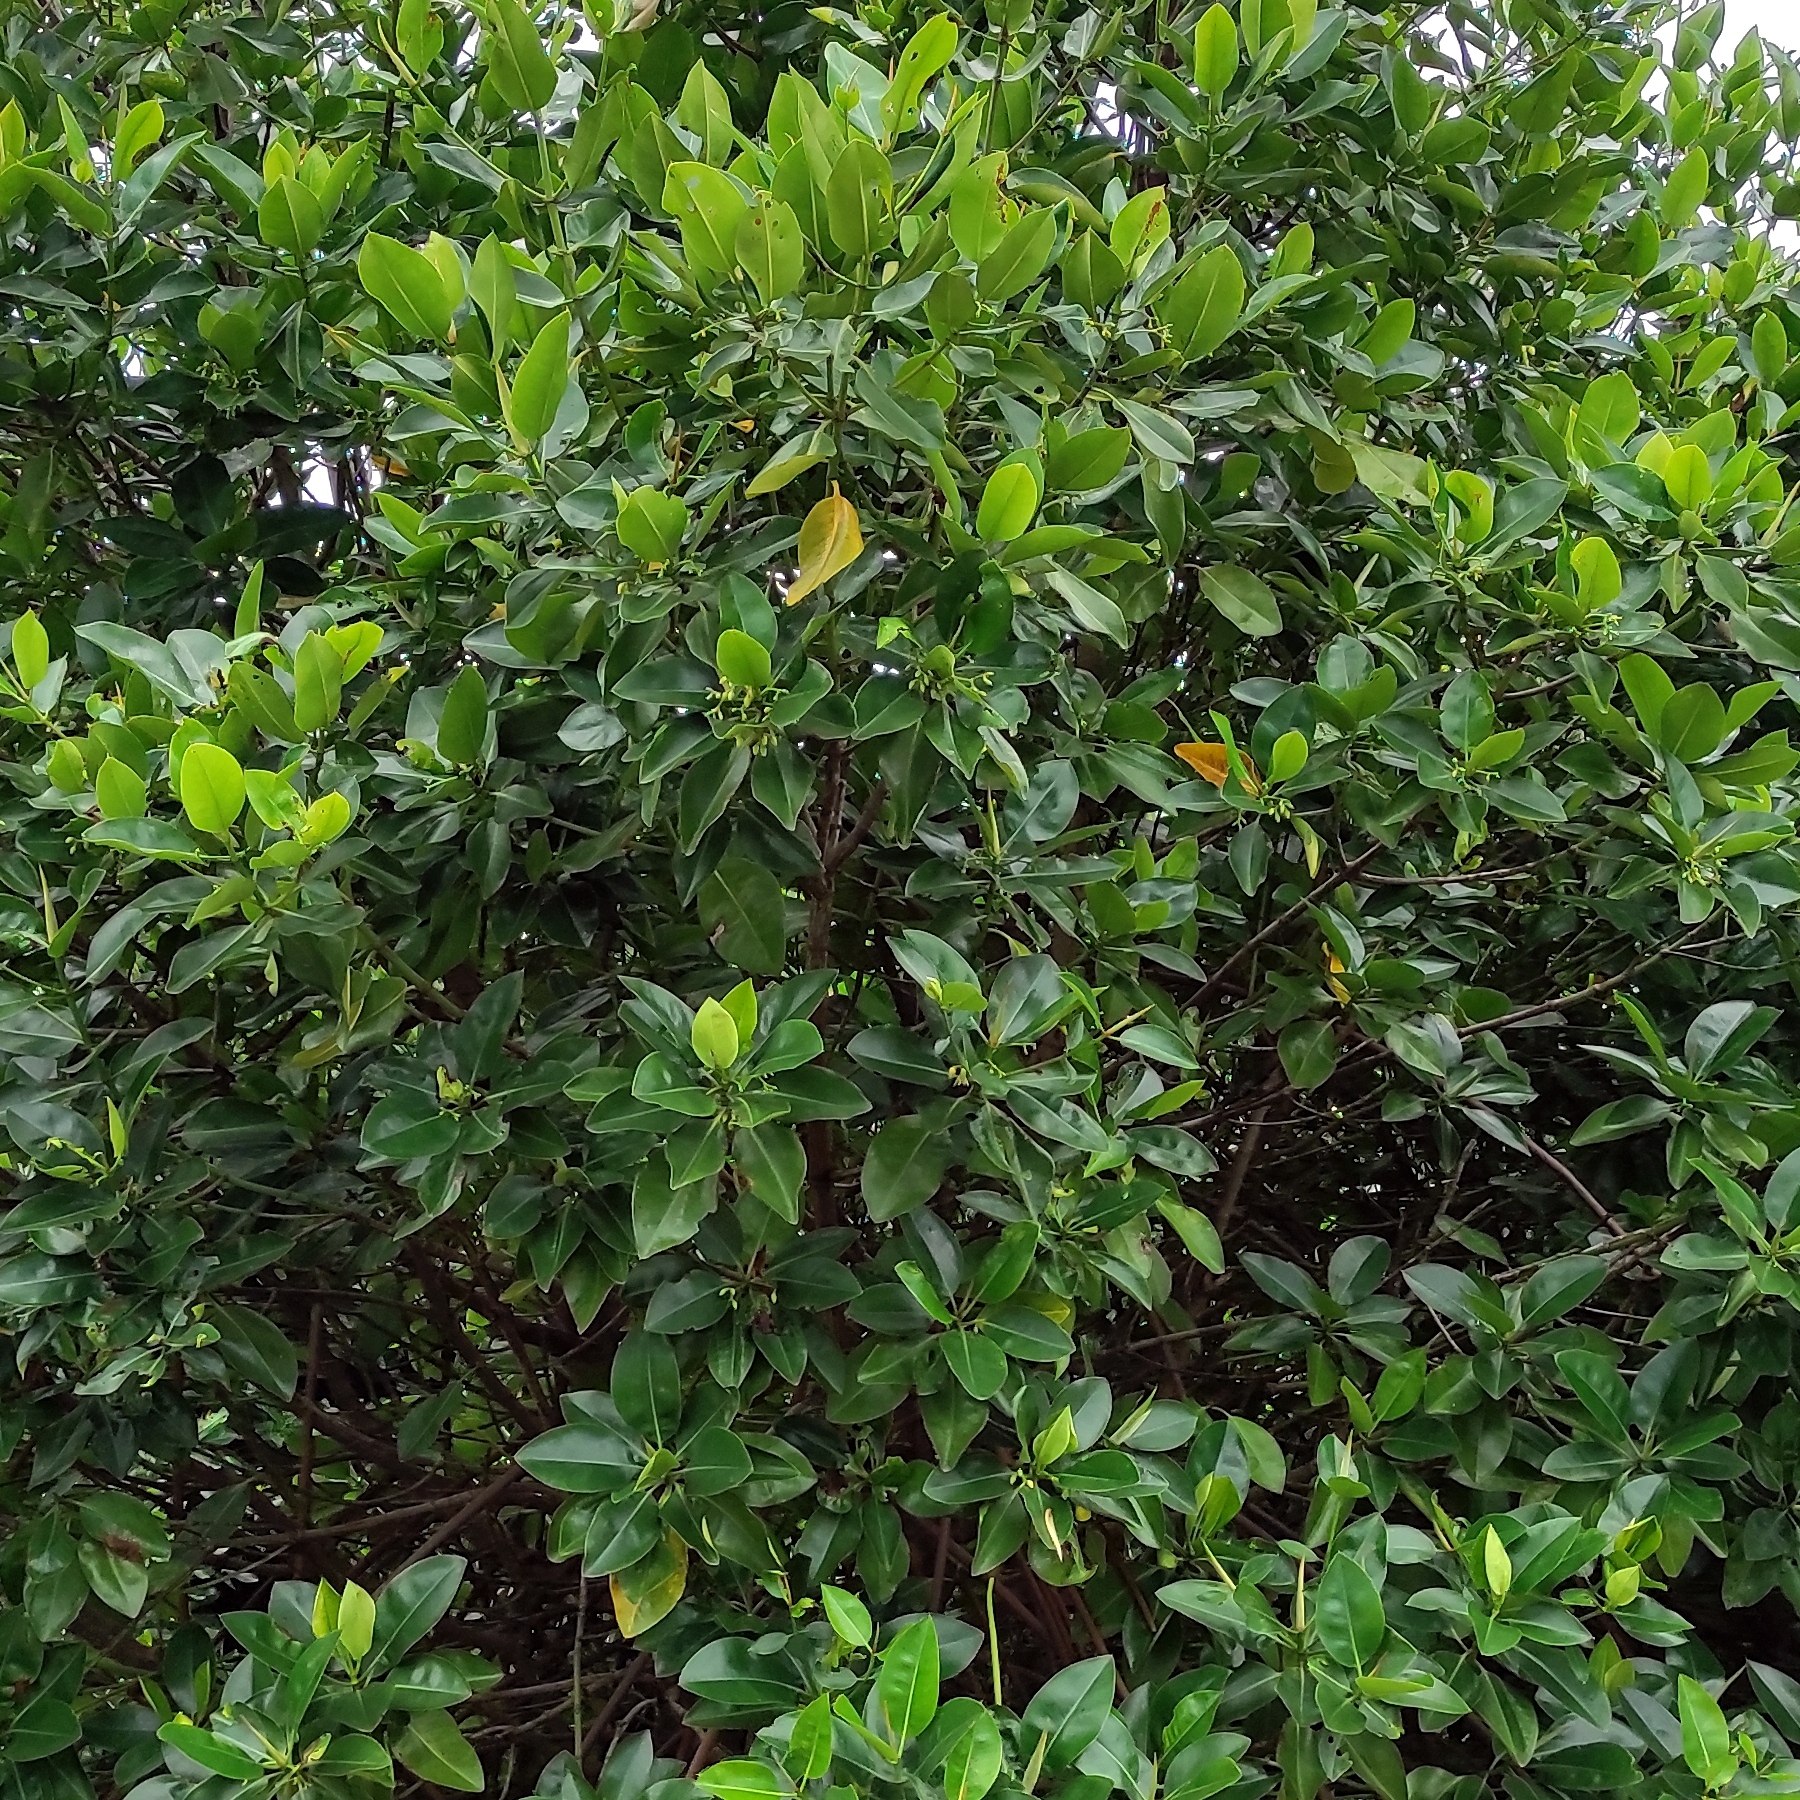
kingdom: Plantae
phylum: Tracheophyta
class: Magnoliopsida
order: Malpighiales
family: Rhizophoraceae
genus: Rhizophora
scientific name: Rhizophora stylosa
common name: Red mangrove
